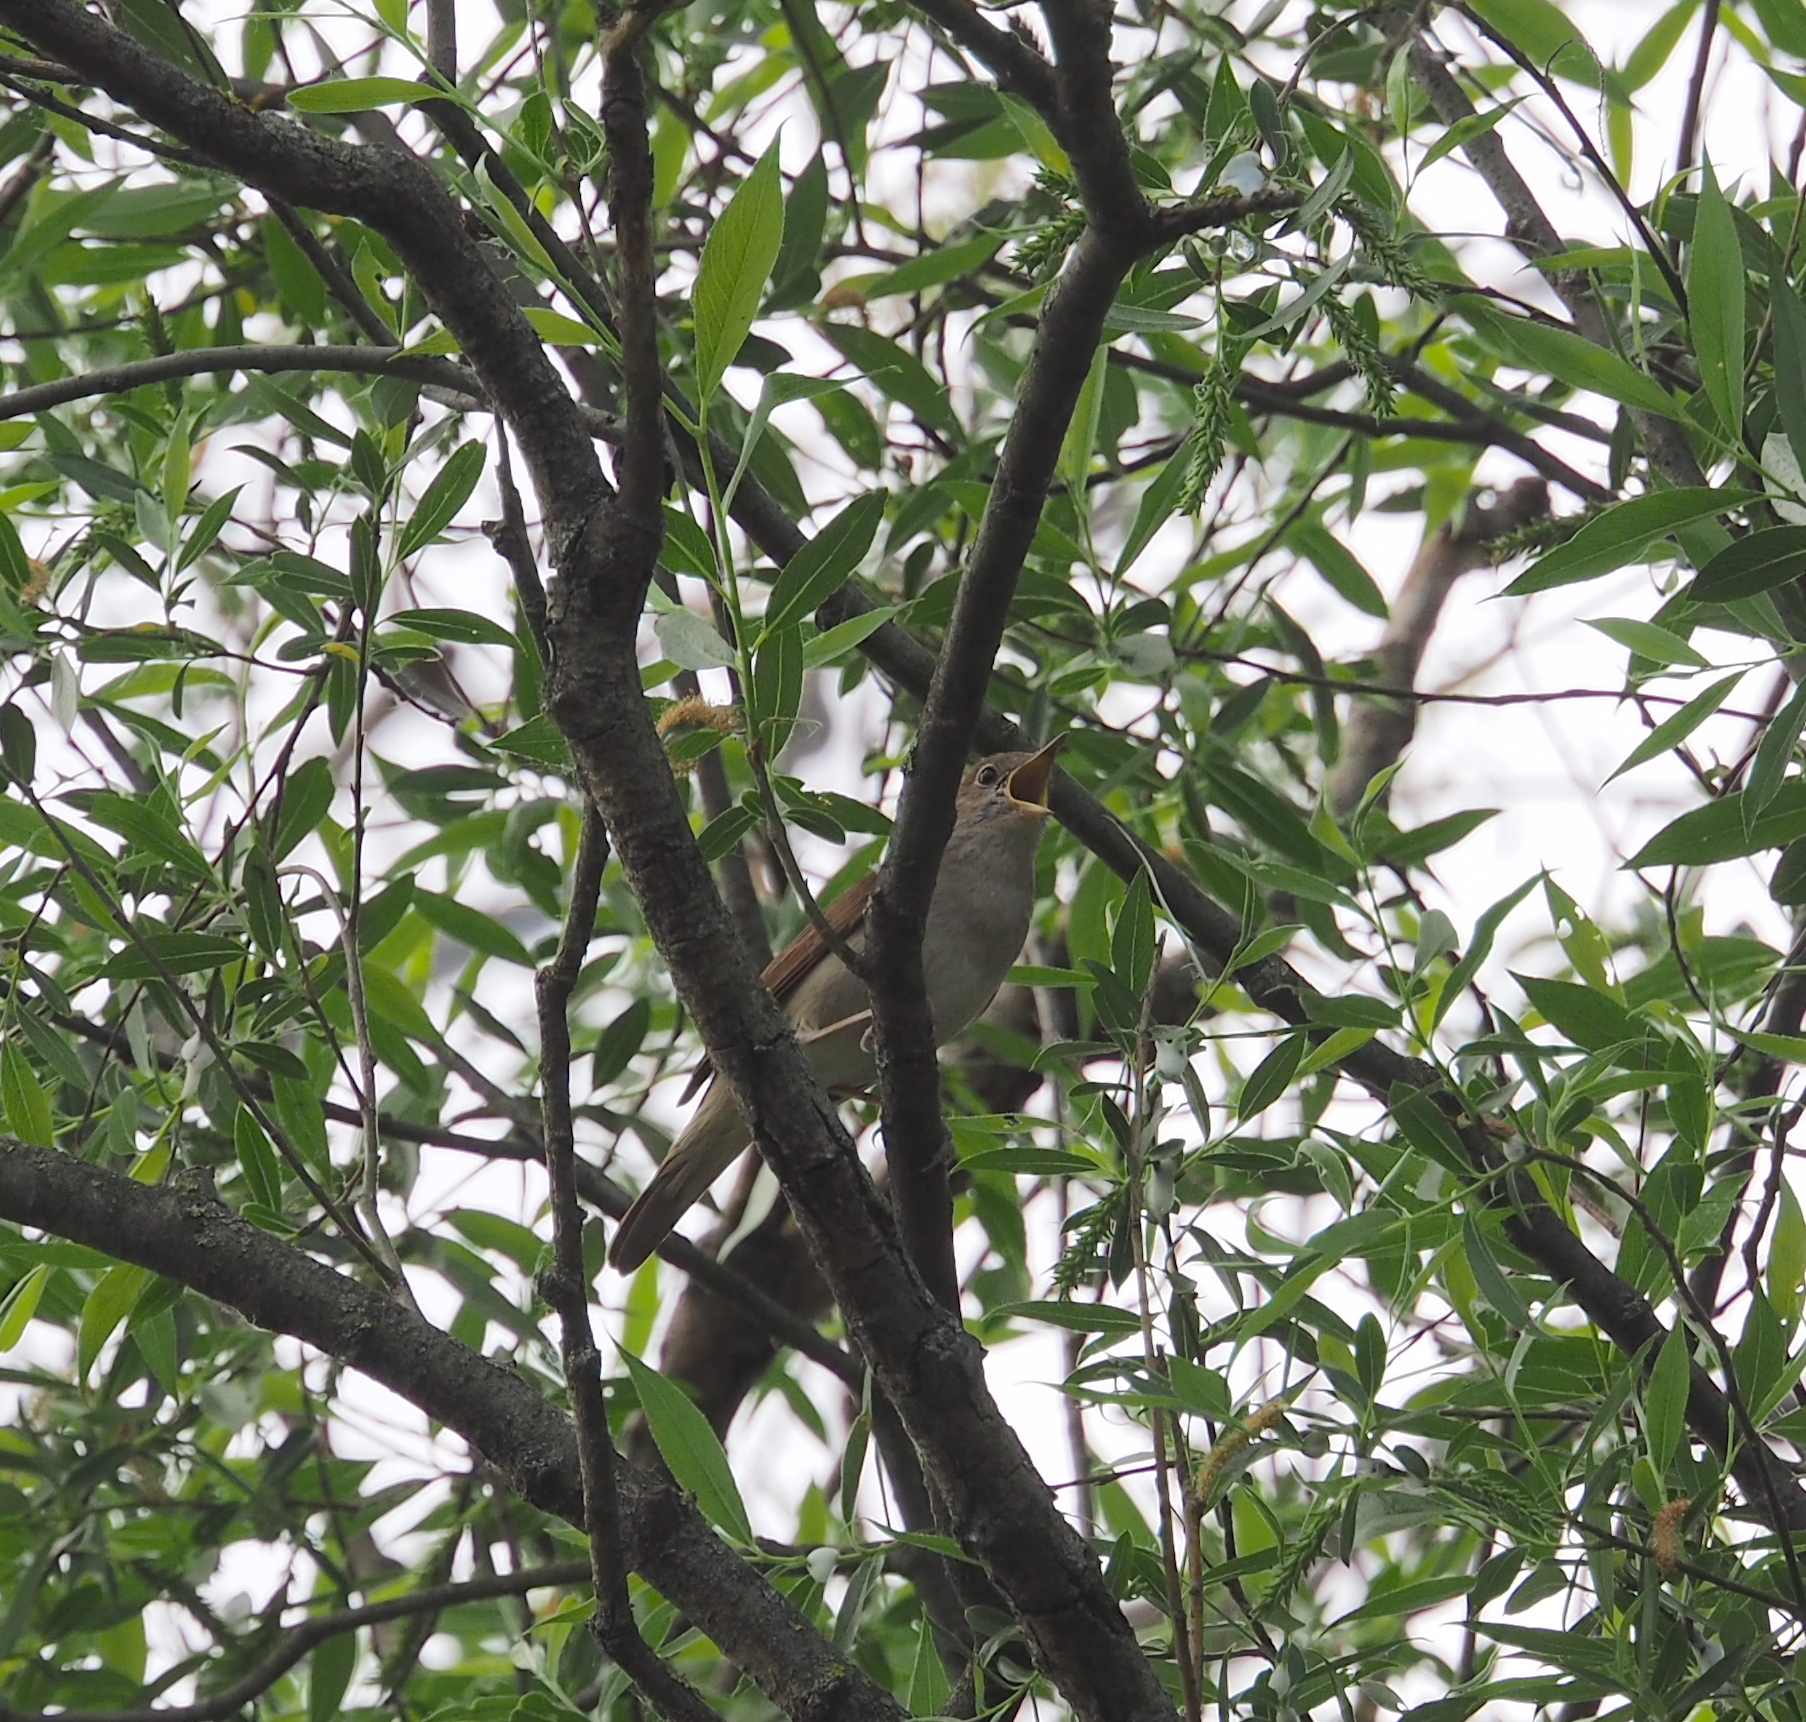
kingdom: Animalia
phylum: Chordata
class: Aves
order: Passeriformes
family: Muscicapidae
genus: Luscinia
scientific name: Luscinia megarhynchos
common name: Common nightingale
